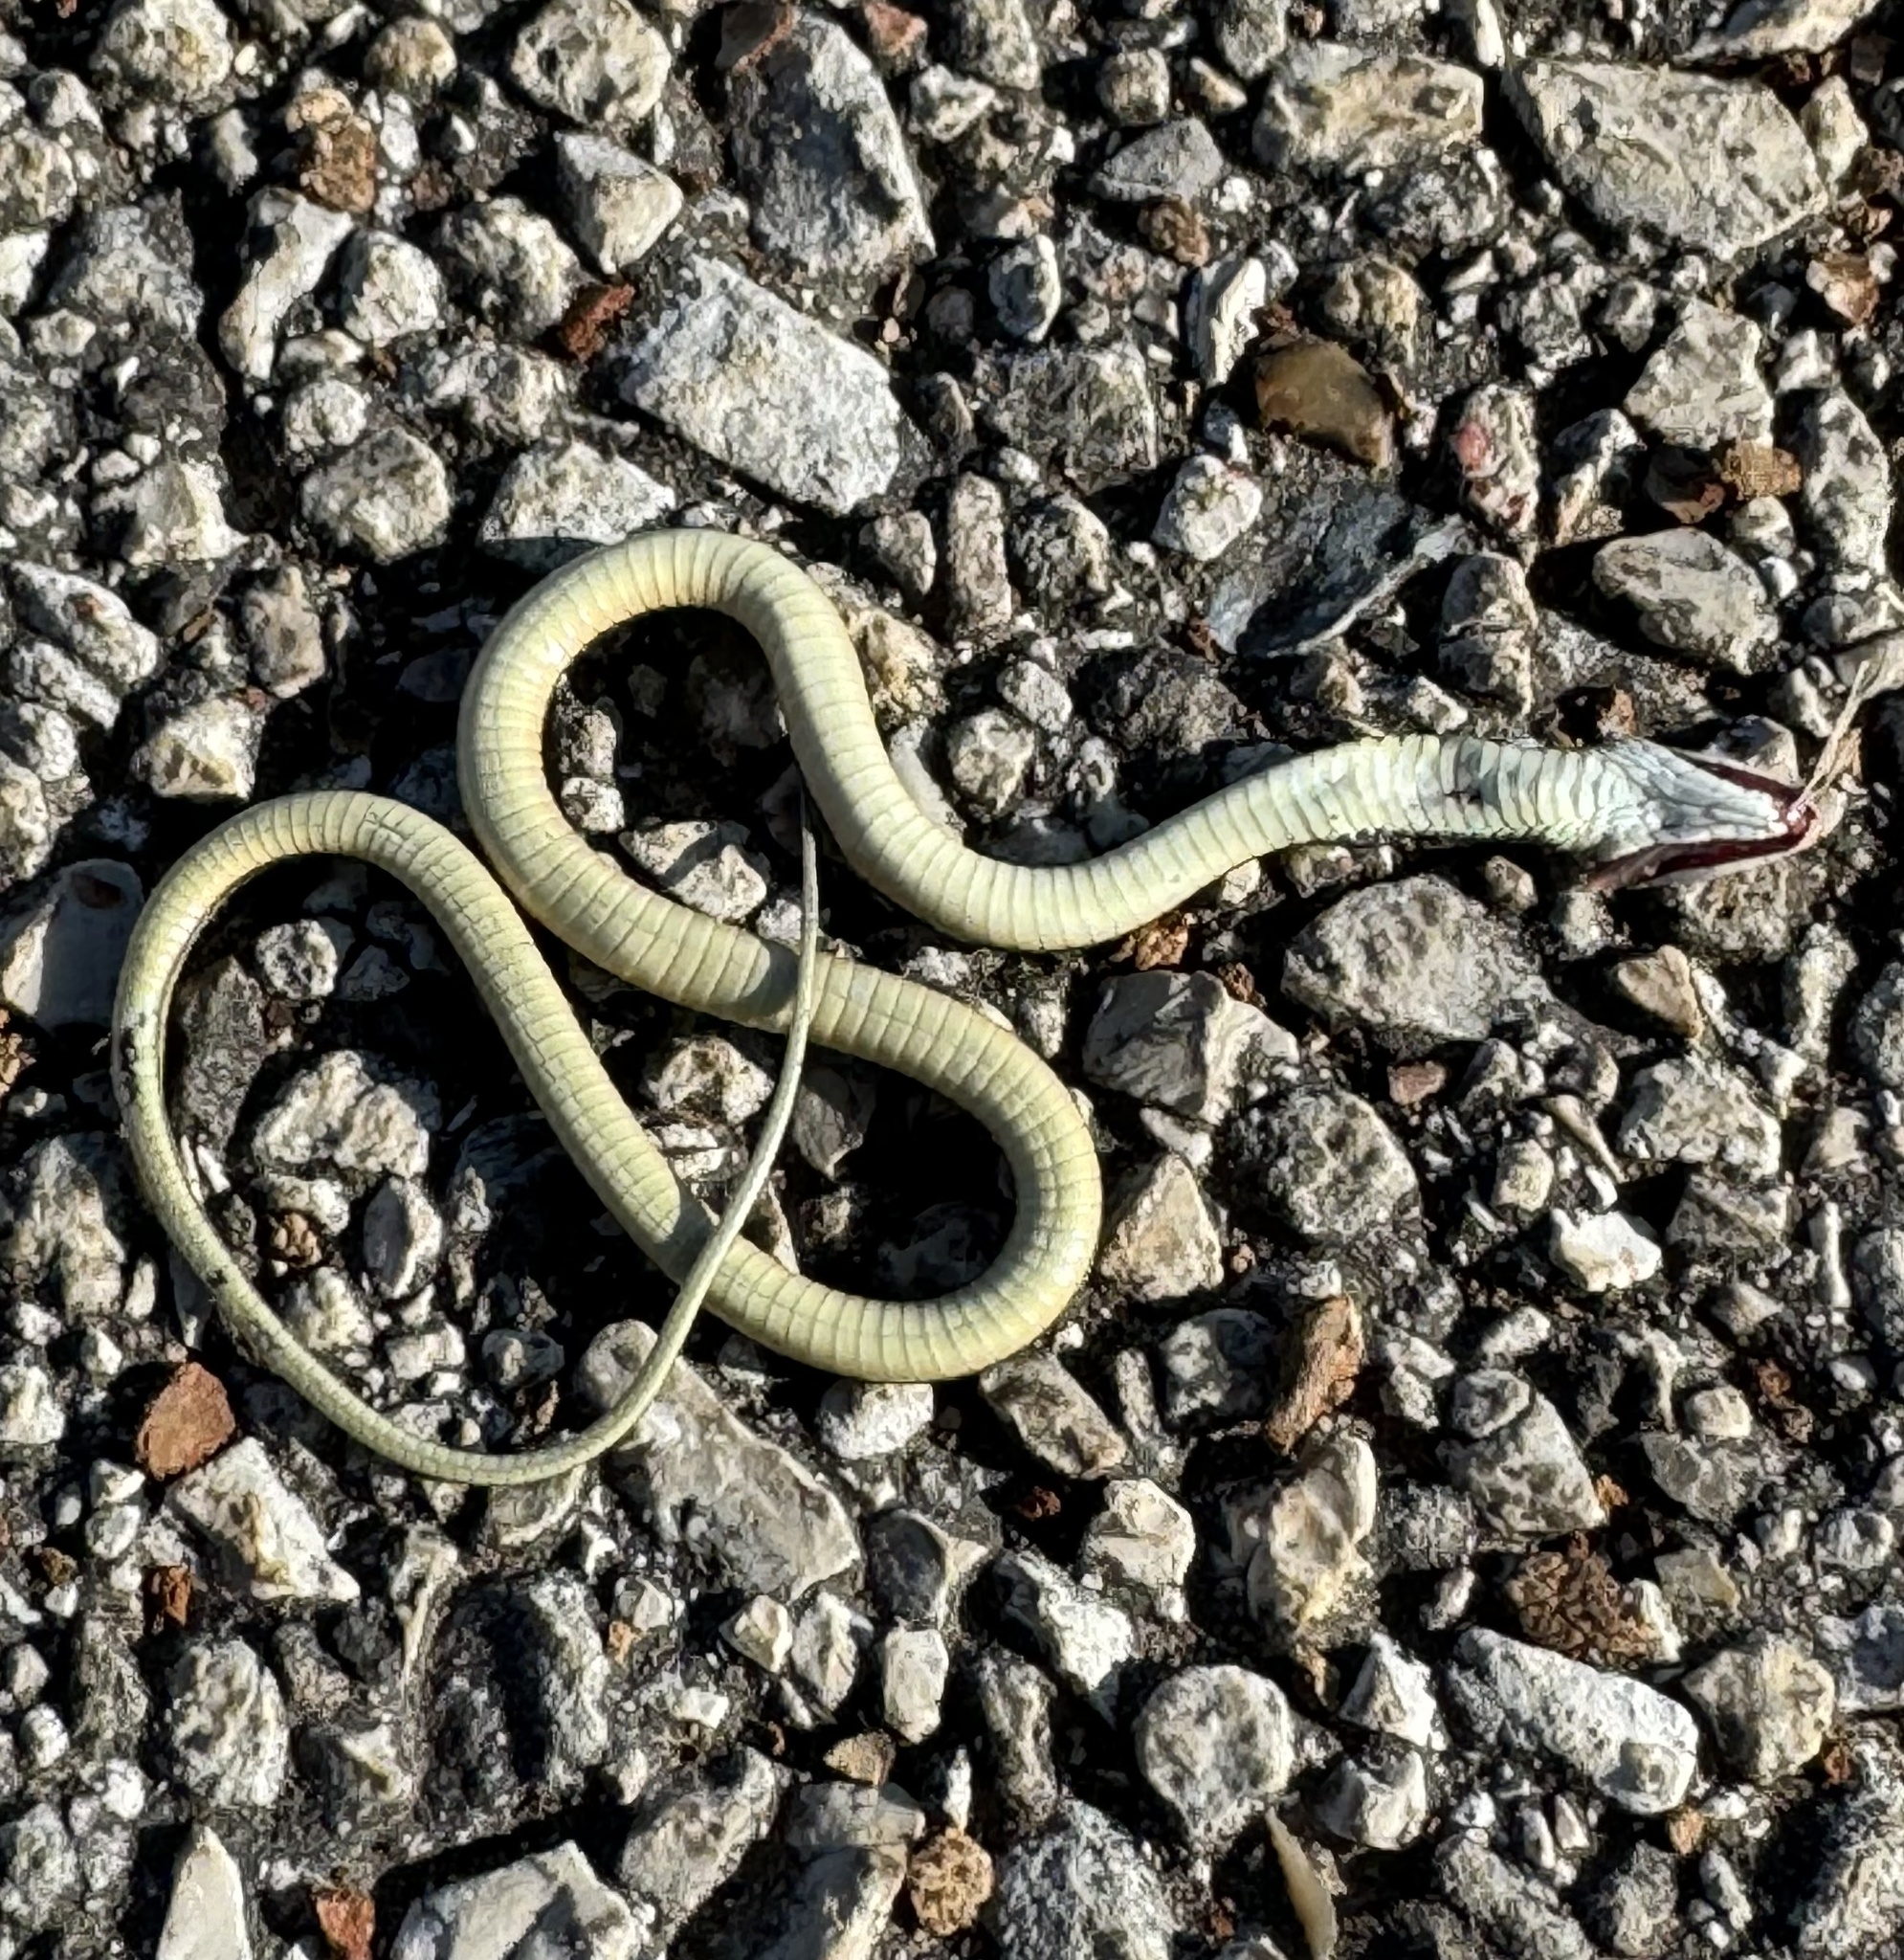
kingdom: Animalia
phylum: Chordata
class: Squamata
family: Colubridae
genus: Thamnophis
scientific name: Thamnophis proximus
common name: Western ribbon snake
